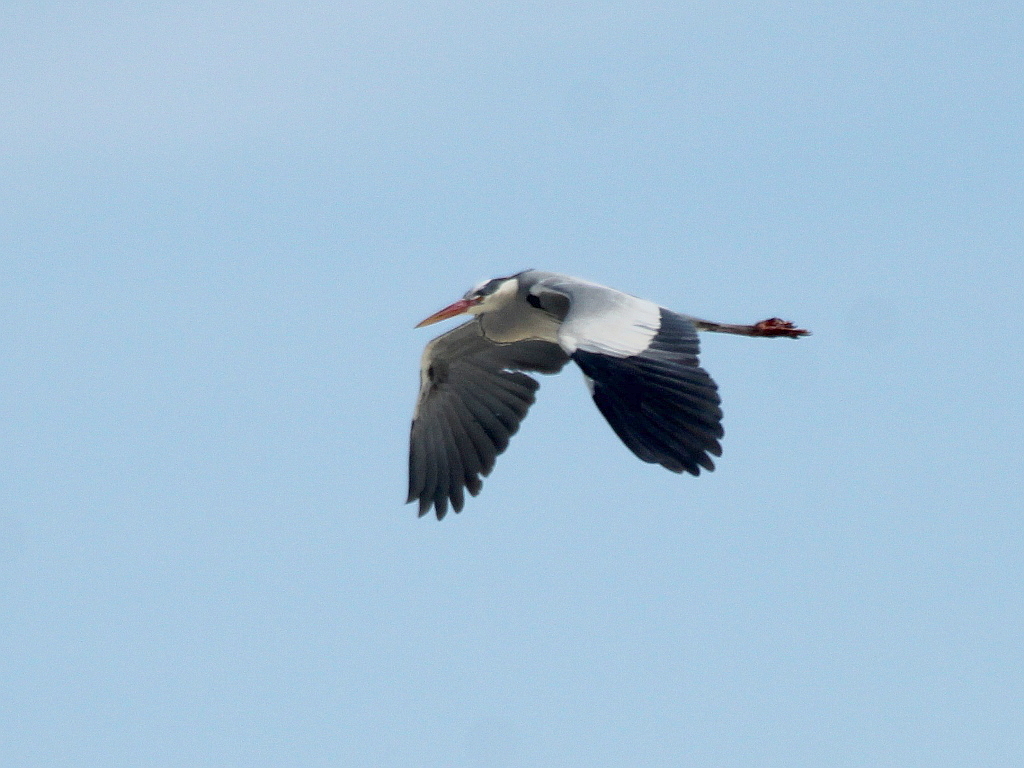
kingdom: Animalia
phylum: Chordata
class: Aves
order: Pelecaniformes
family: Ardeidae
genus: Ardea
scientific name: Ardea cinerea
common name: Grey heron
